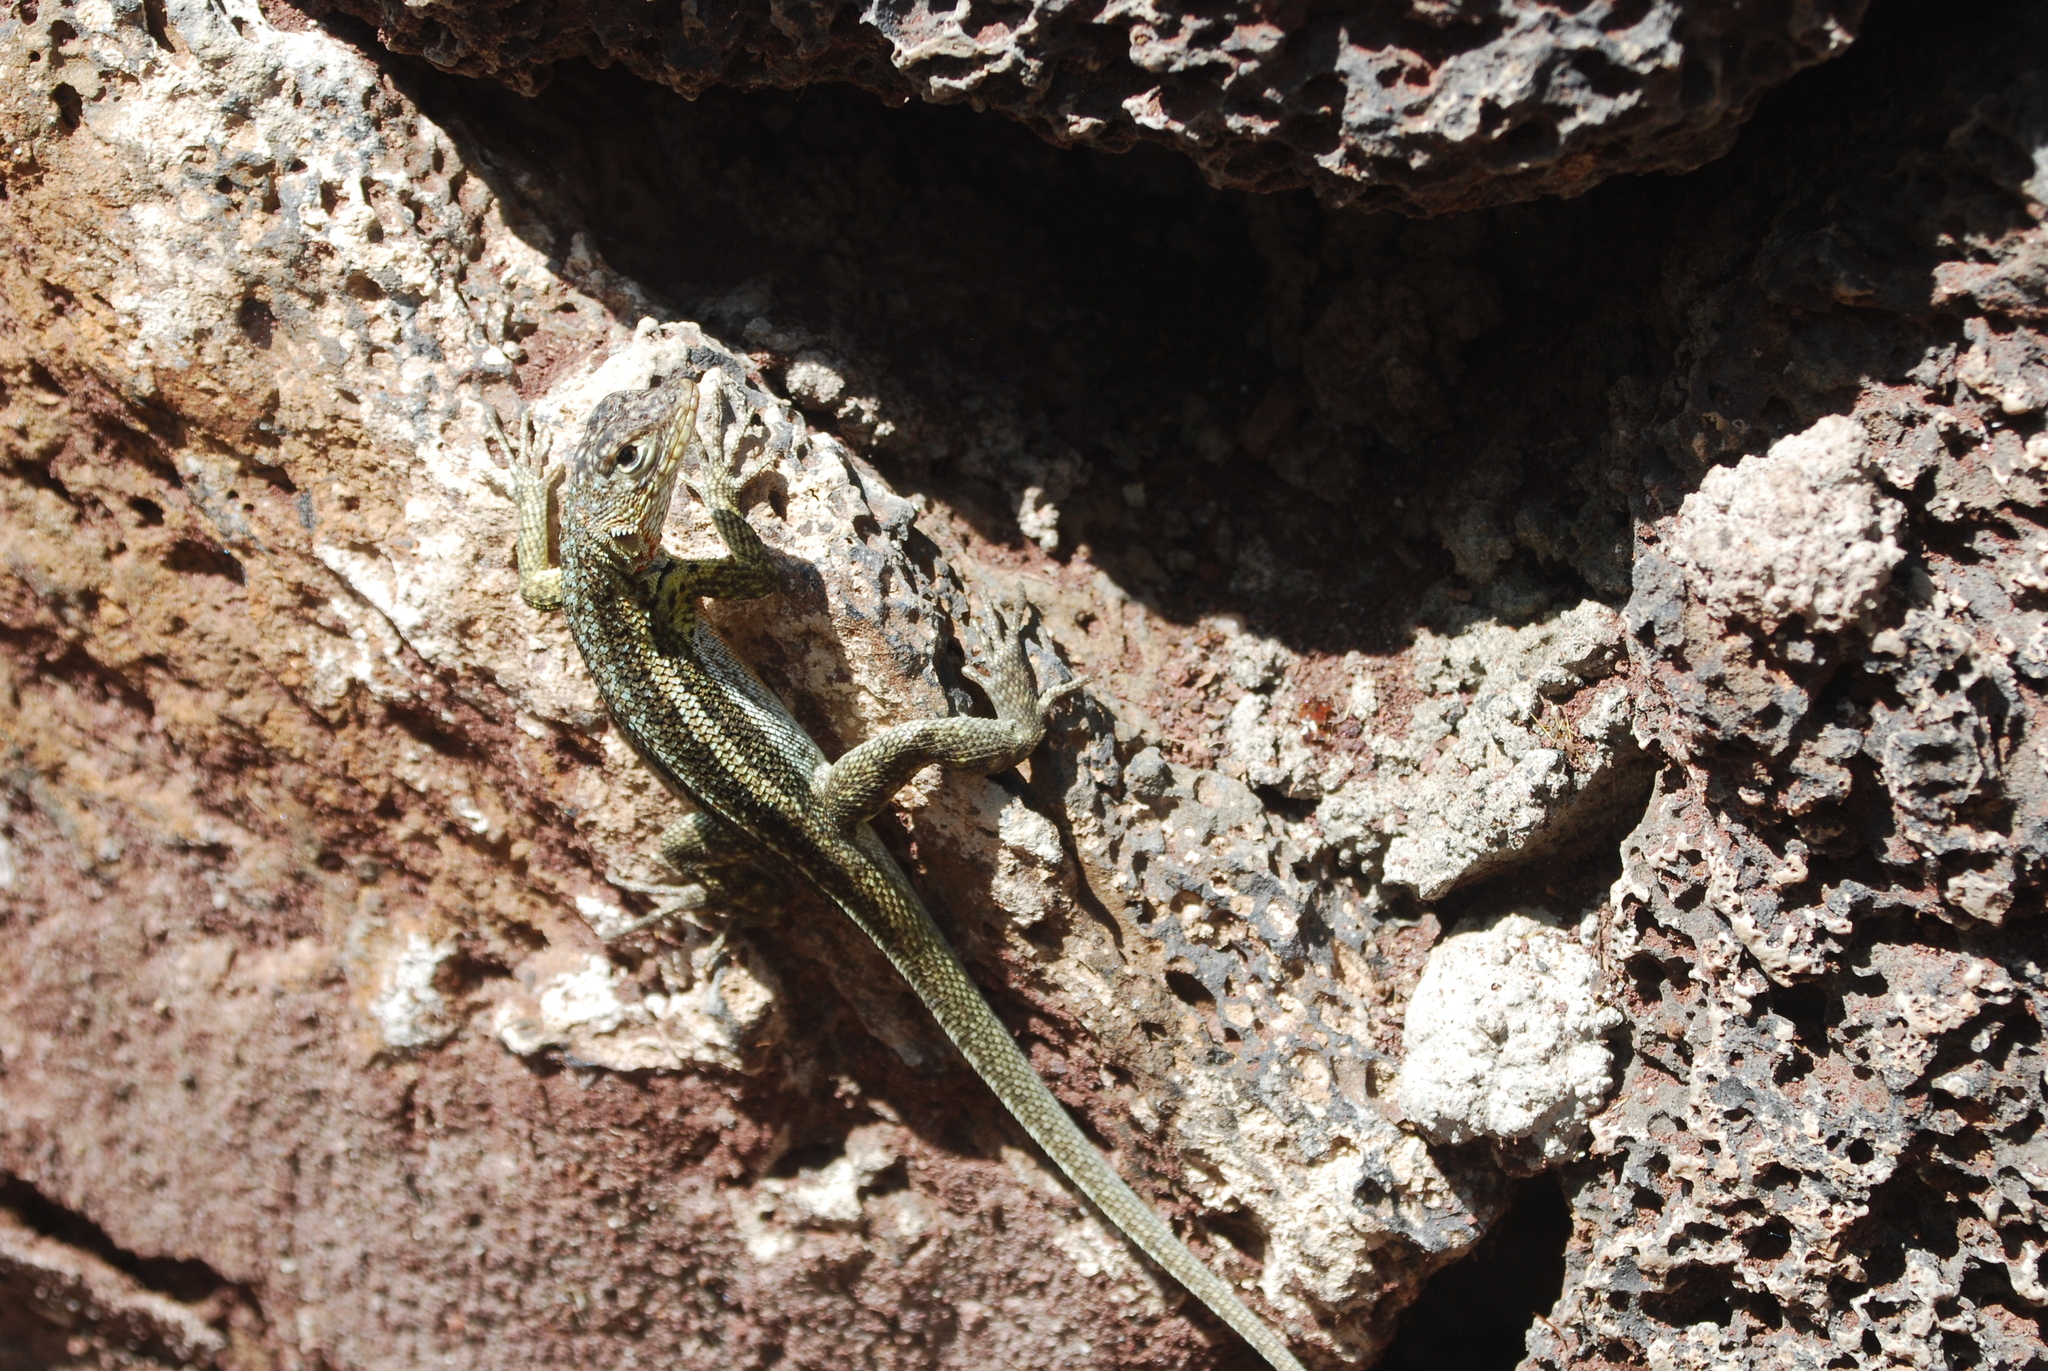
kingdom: Animalia
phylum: Chordata
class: Squamata
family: Tropiduridae
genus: Microlophus
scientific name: Microlophus indefatigabilis
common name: Galapagos lava lizard
